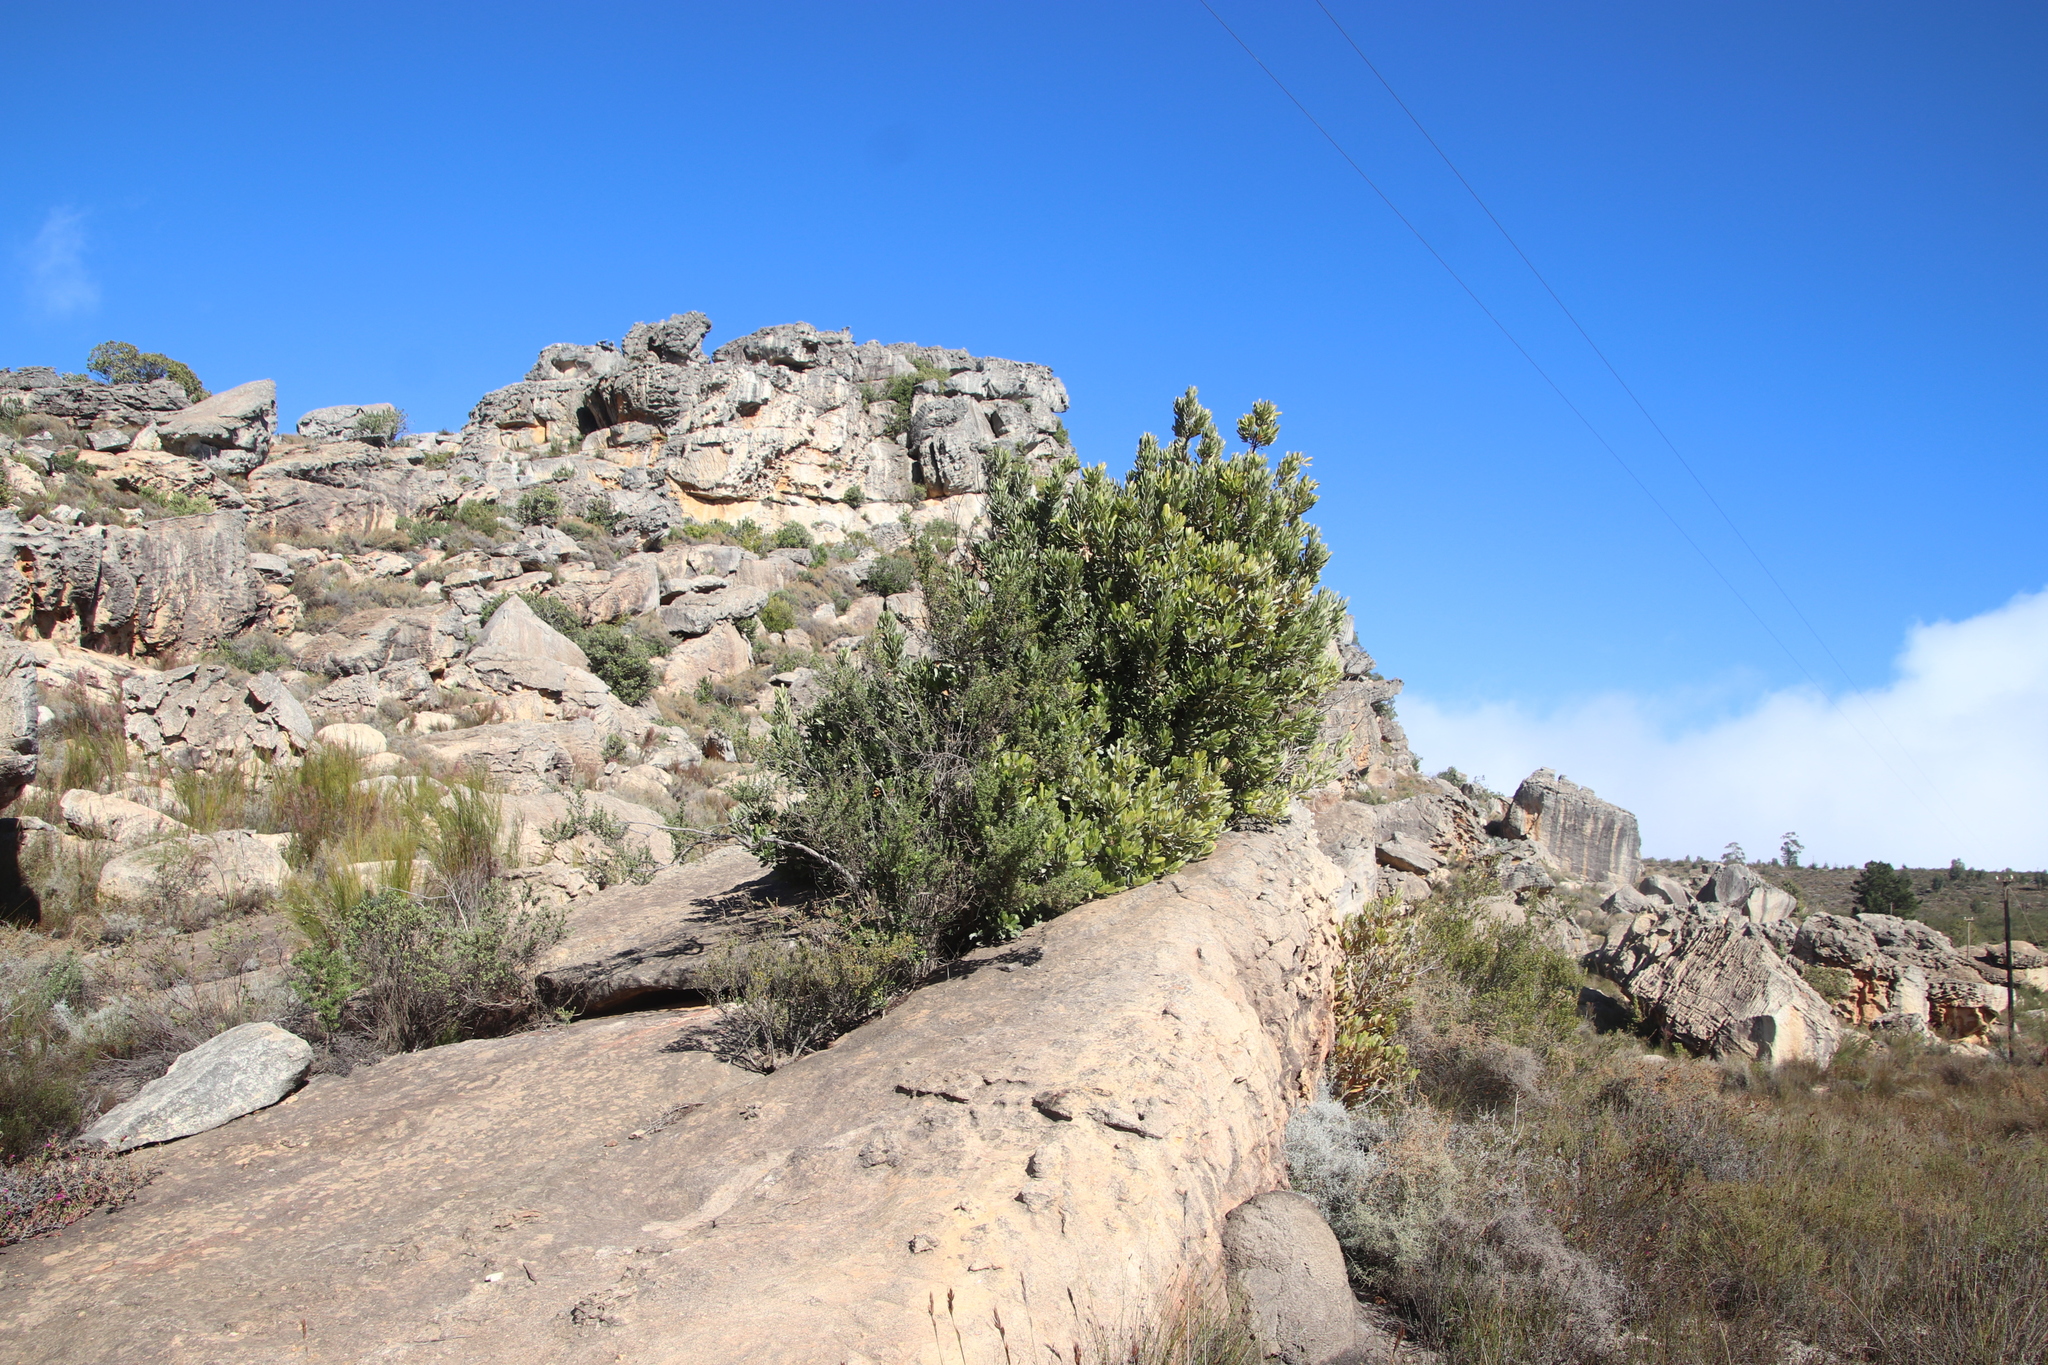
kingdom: Plantae
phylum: Tracheophyta
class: Magnoliopsida
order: Sapindales
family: Anacardiaceae
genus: Heeria
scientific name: Heeria argentea
